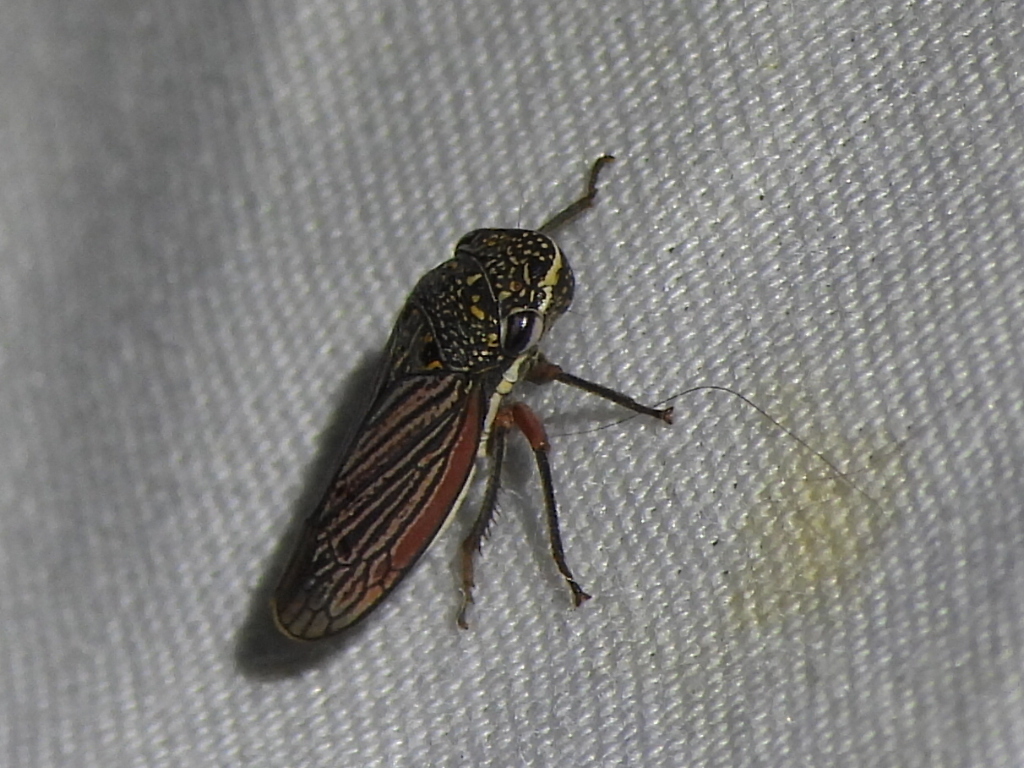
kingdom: Animalia
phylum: Arthropoda
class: Insecta
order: Hemiptera
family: Cicadellidae
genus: Cuerna
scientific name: Cuerna costalis
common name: Lateral-lined sharpshooter
